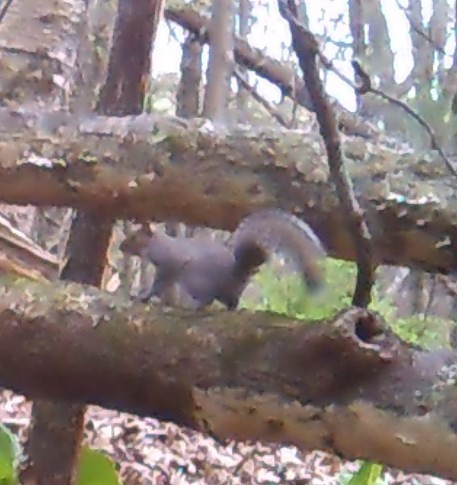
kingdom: Animalia
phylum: Chordata
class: Mammalia
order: Rodentia
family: Sciuridae
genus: Sciurus
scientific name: Sciurus carolinensis
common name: Eastern gray squirrel
